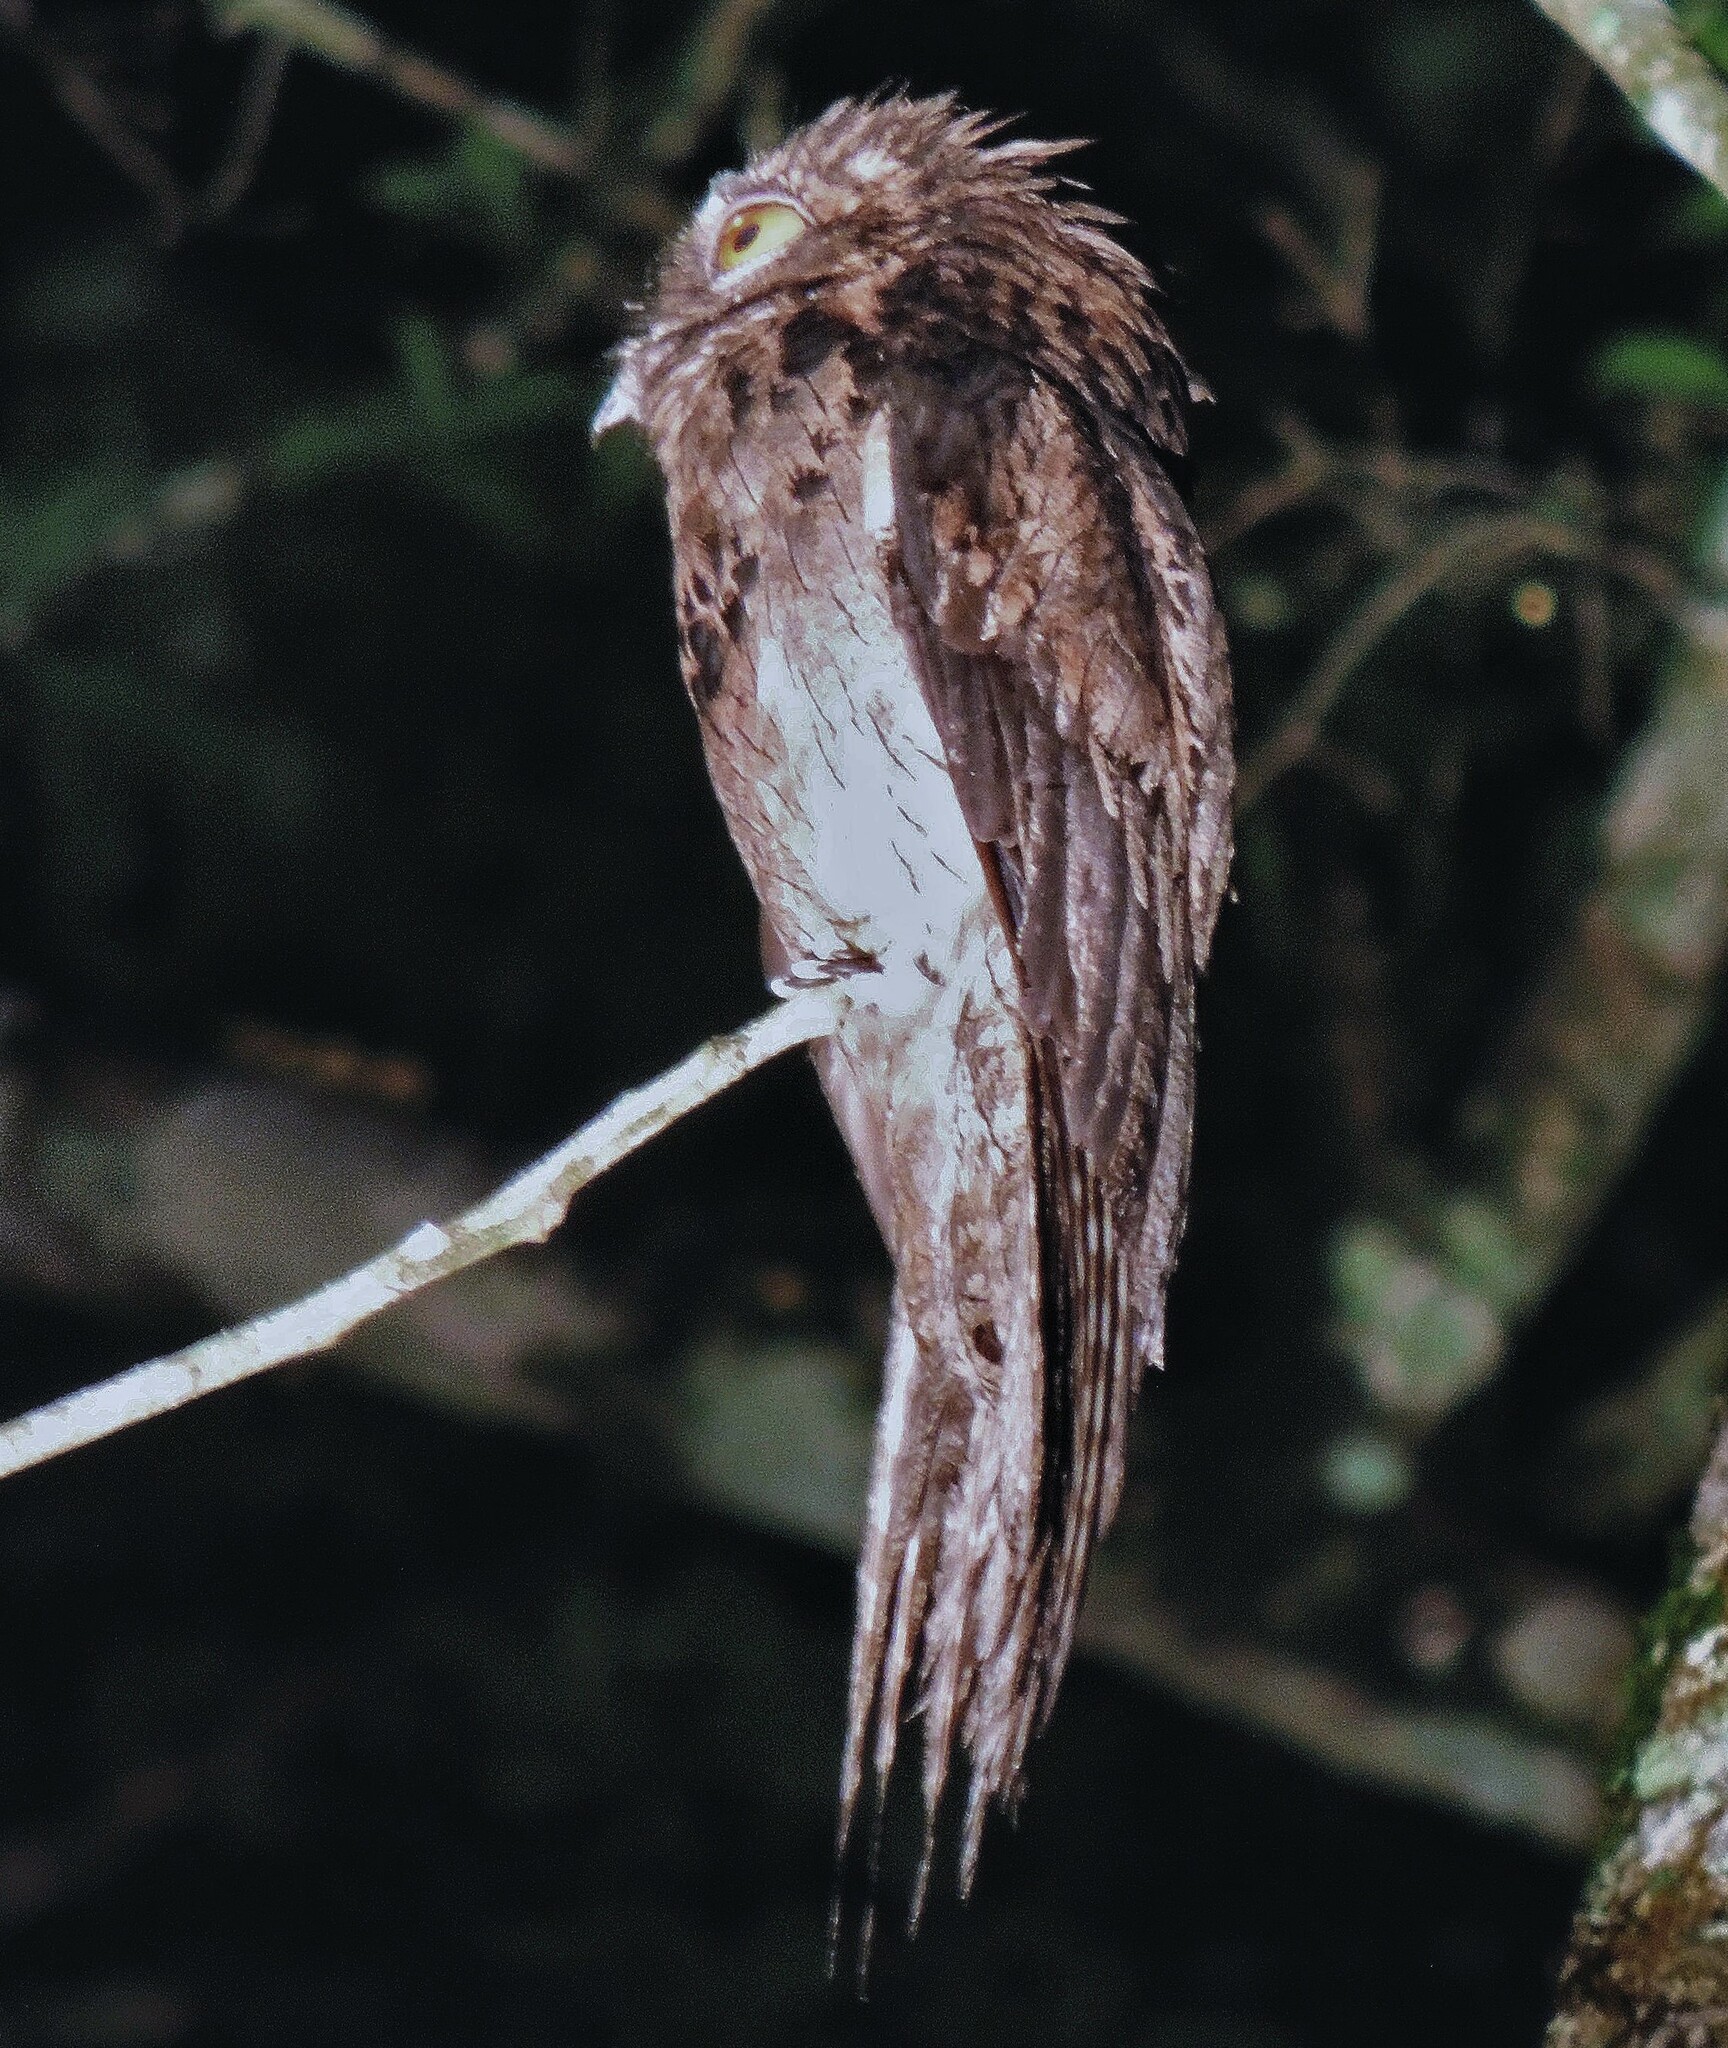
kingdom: Animalia
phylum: Chordata
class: Aves
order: Nyctibiiformes
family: Nyctibiidae
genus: Nyctibius
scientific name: Nyctibius griseus
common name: Common potoo
